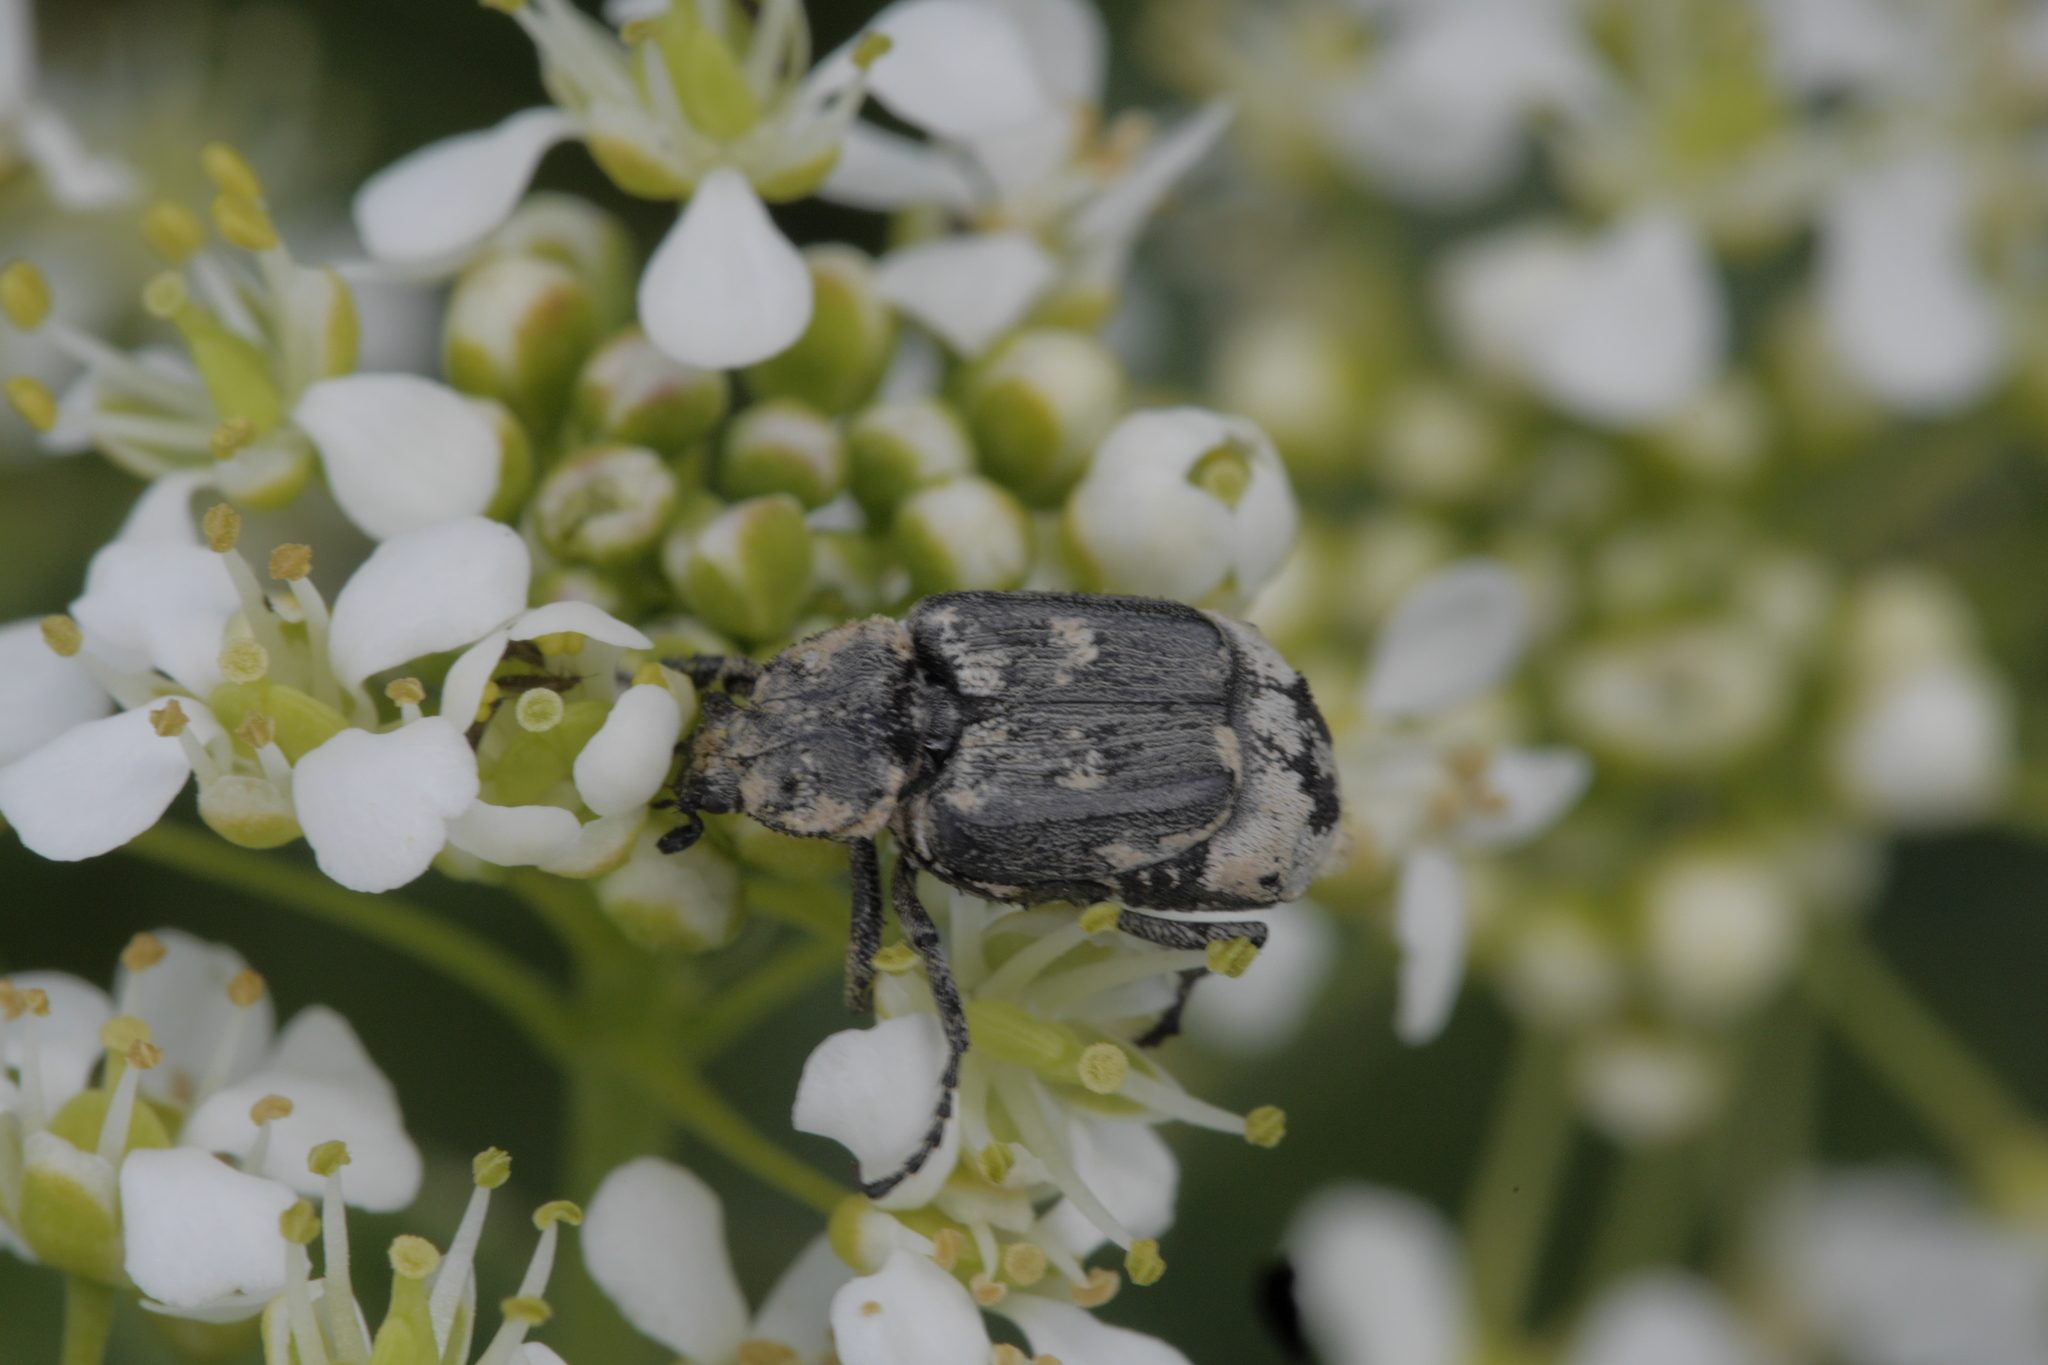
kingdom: Animalia
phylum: Arthropoda
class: Insecta
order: Coleoptera
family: Scarabaeidae
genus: Valgus
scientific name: Valgus hemipterus
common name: Bug flower chafer
